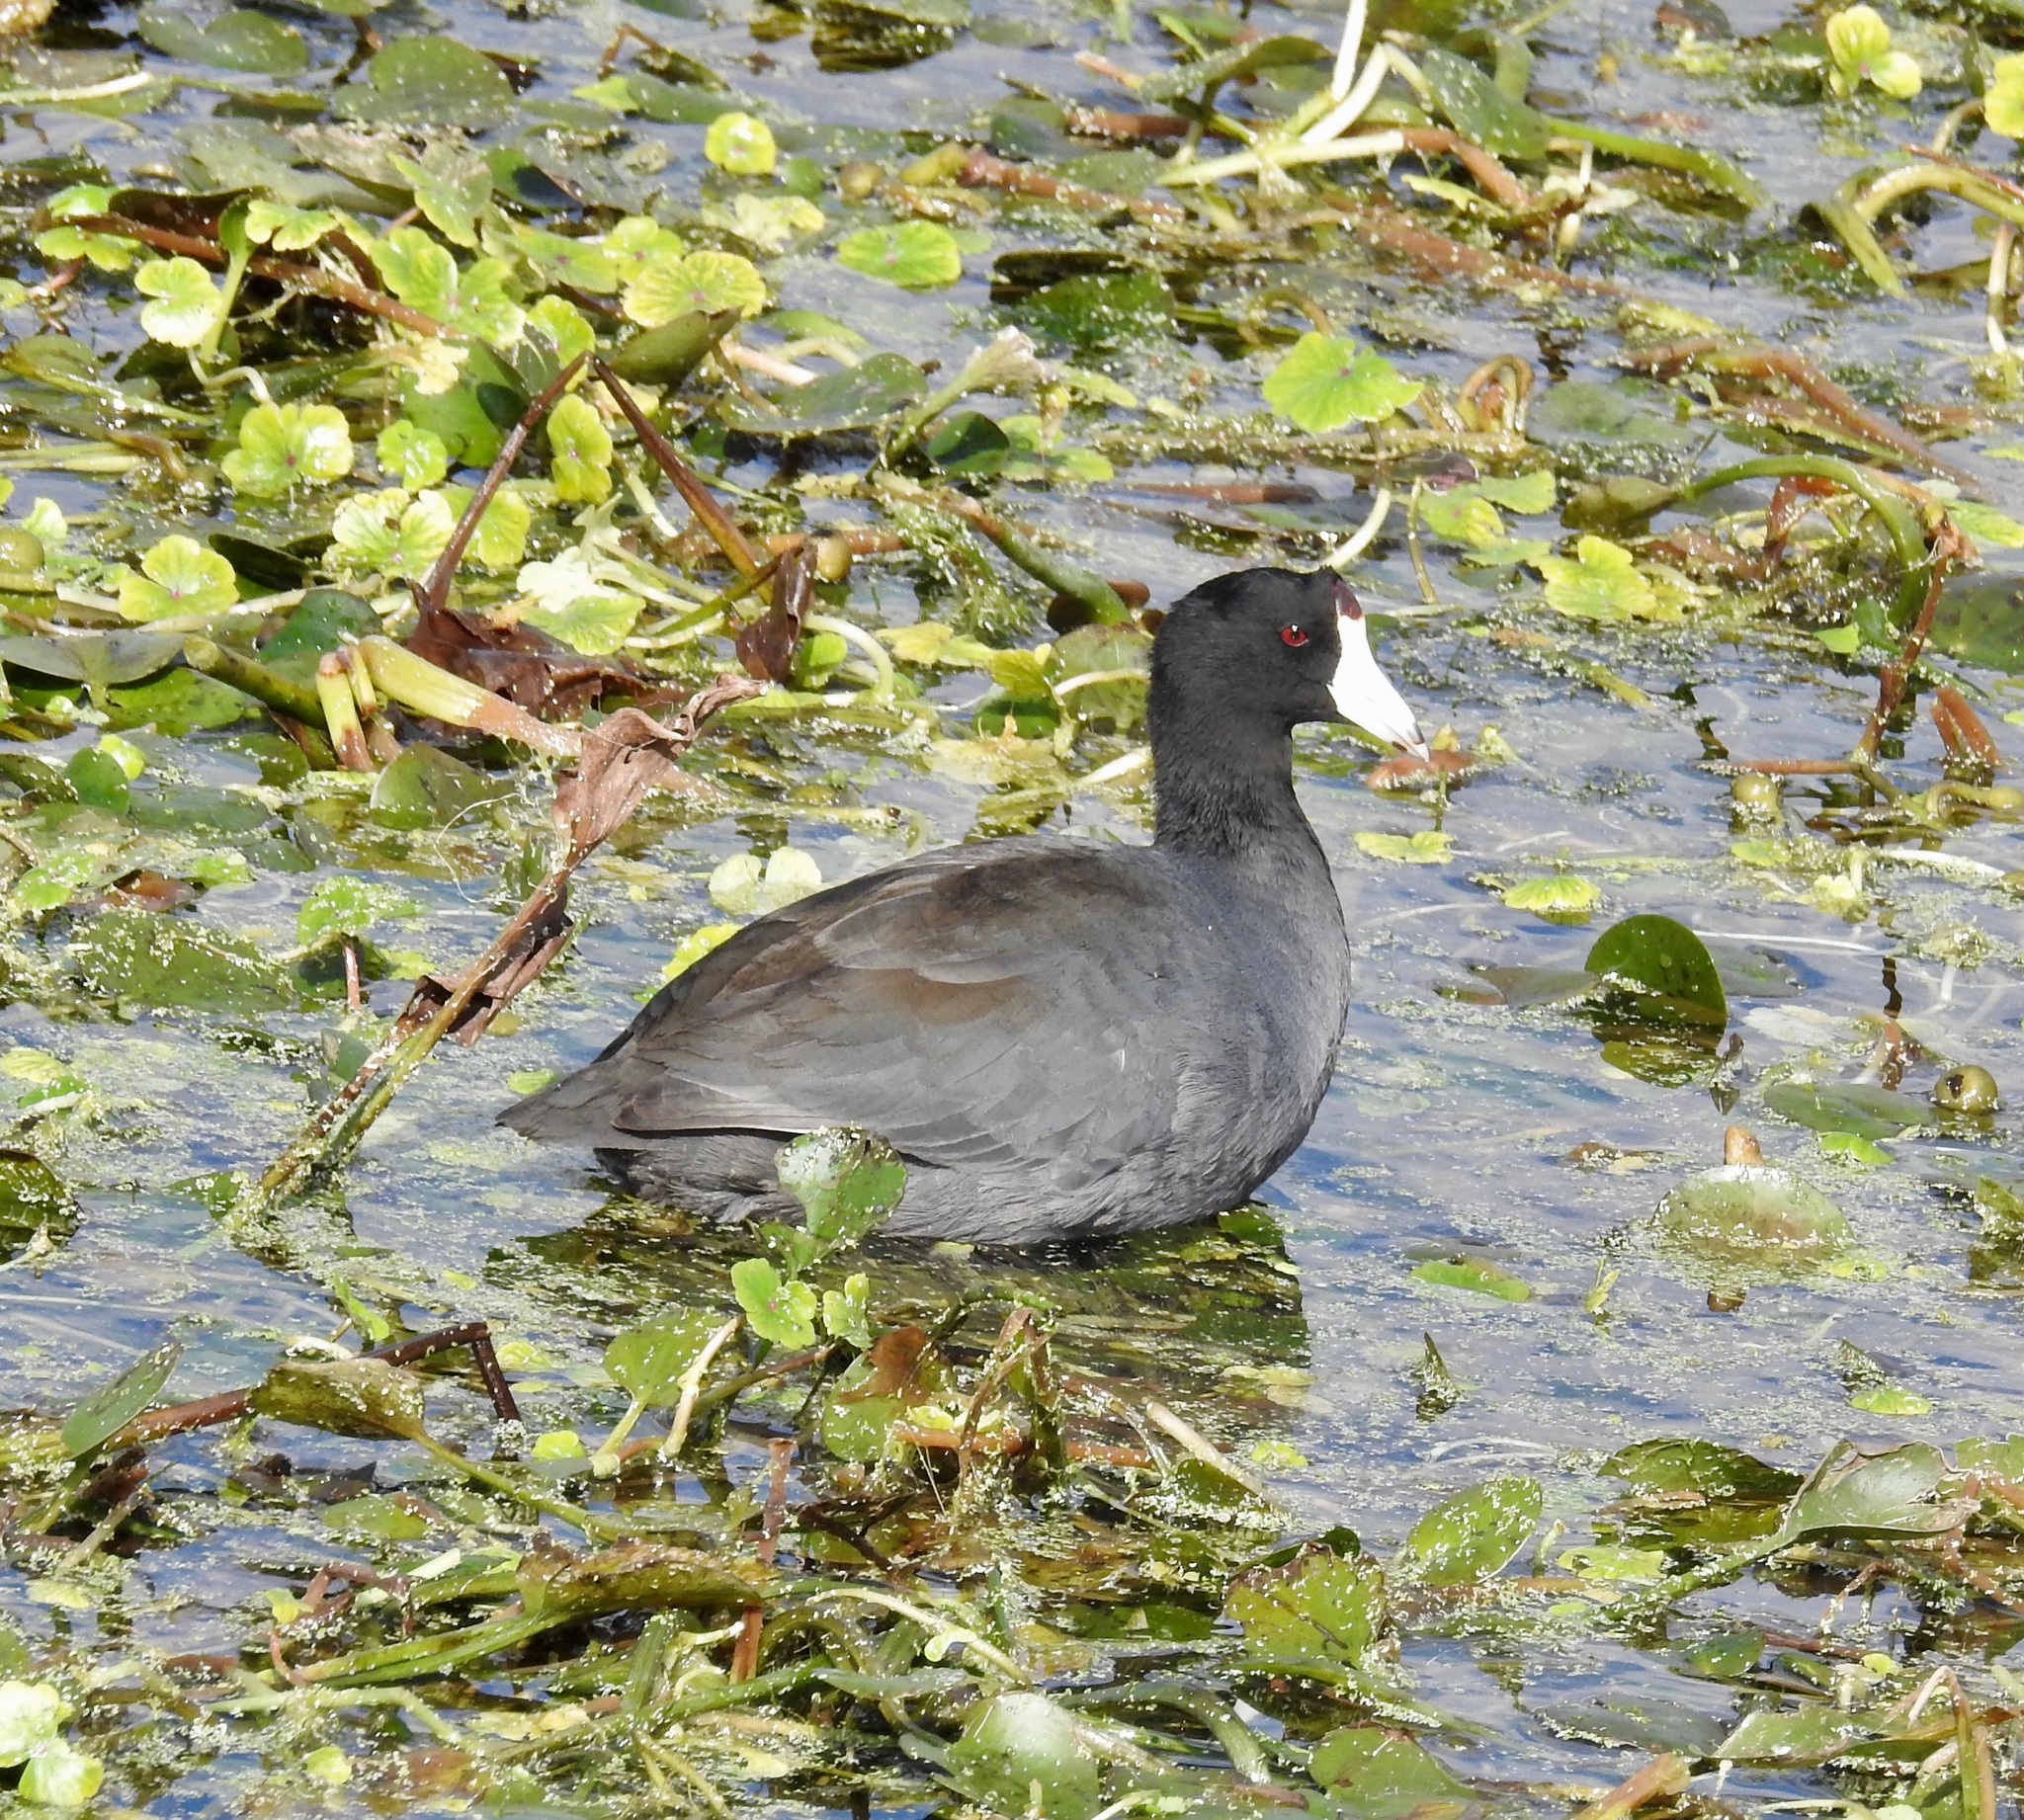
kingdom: Animalia
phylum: Chordata
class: Aves
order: Gruiformes
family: Rallidae
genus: Fulica
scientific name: Fulica americana
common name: American coot
